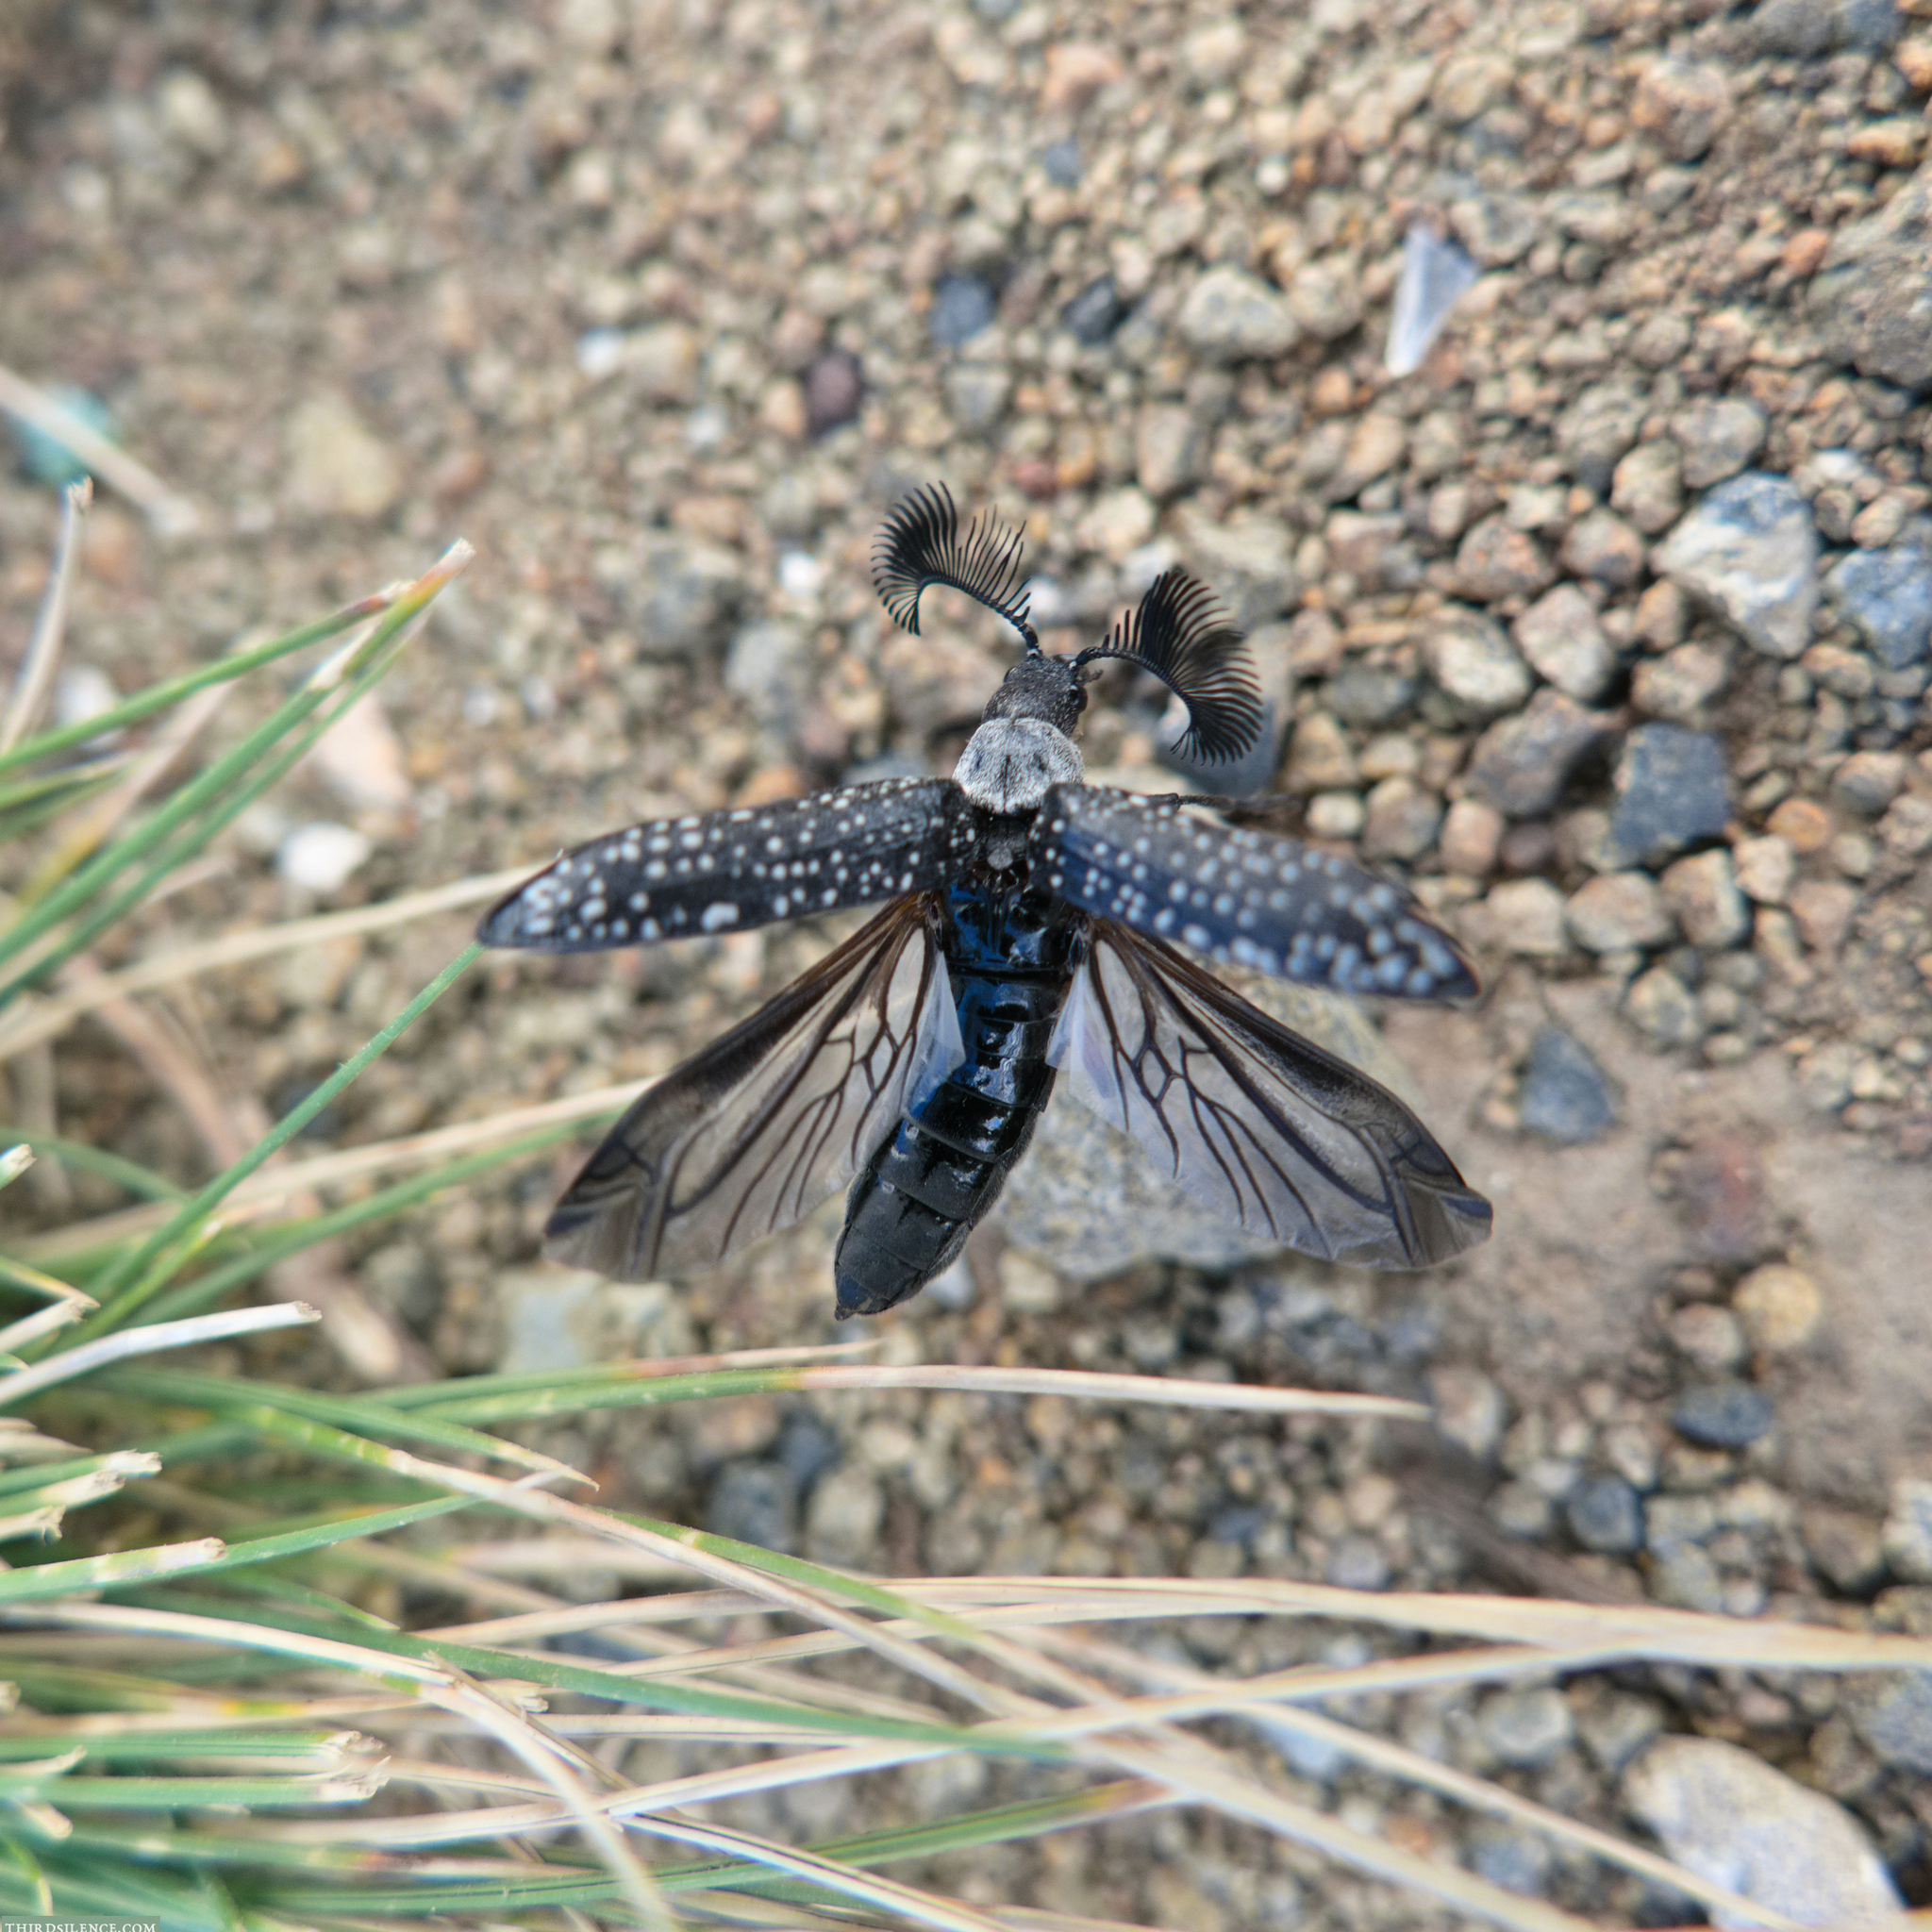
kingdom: Animalia
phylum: Arthropoda
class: Insecta
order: Coleoptera
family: Rhipiceridae
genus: Rhipicera
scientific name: Rhipicera femorata
